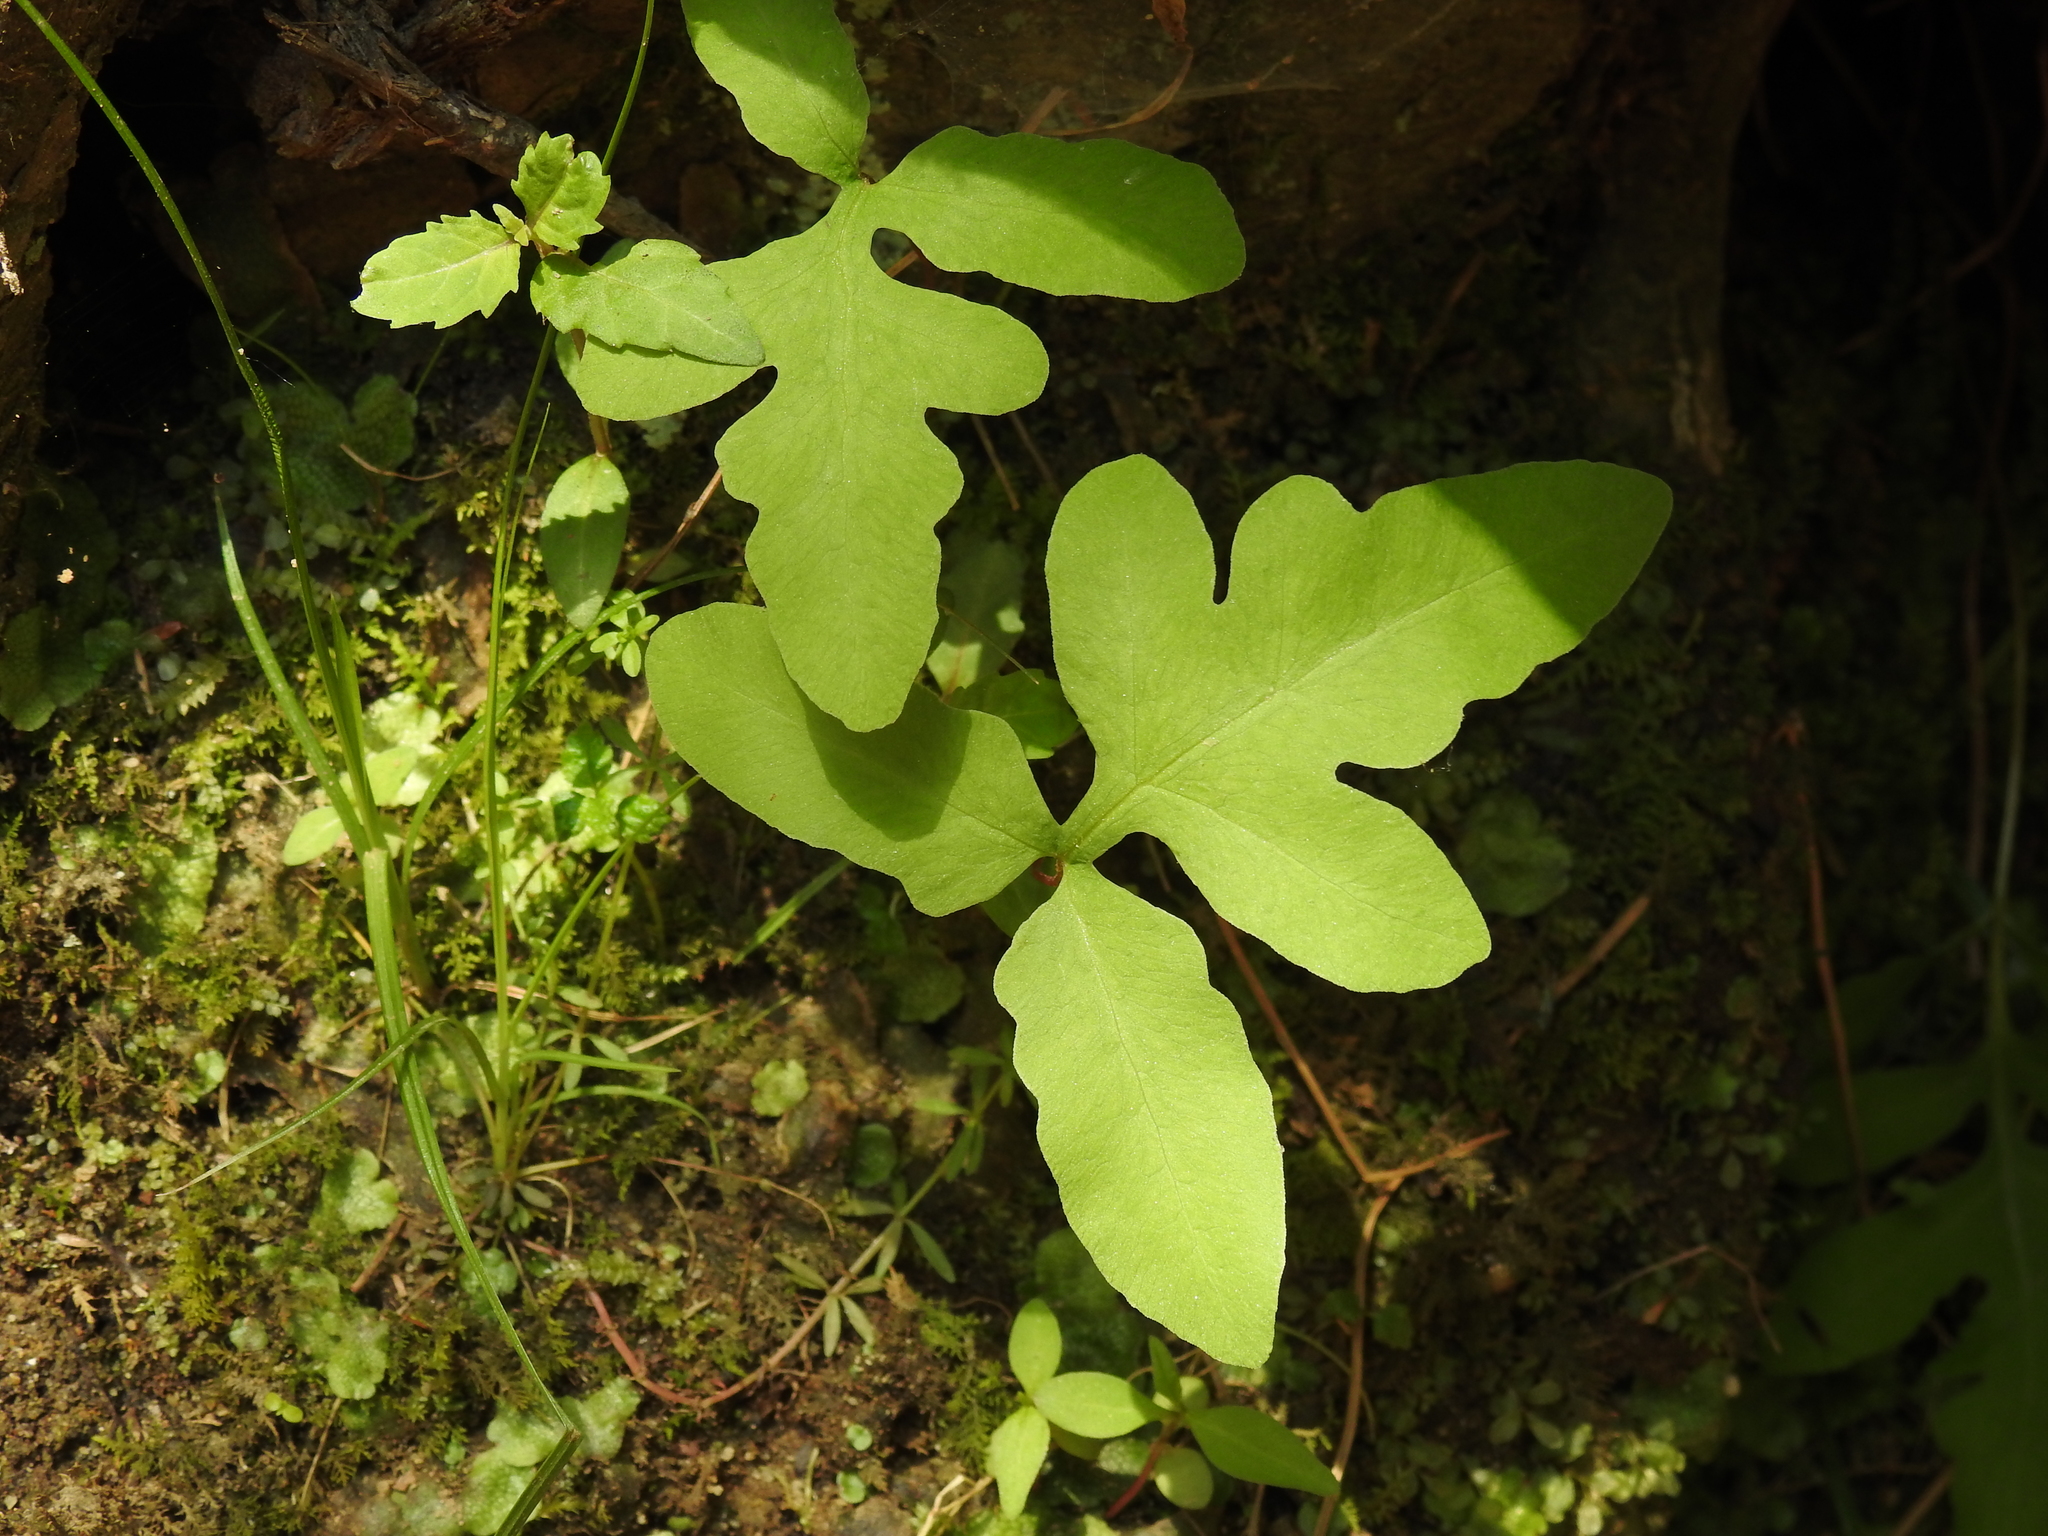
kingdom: Plantae
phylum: Tracheophyta
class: Polypodiopsida
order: Polypodiales
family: Onocleaceae
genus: Onoclea
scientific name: Onoclea sensibilis
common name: Sensitive fern
